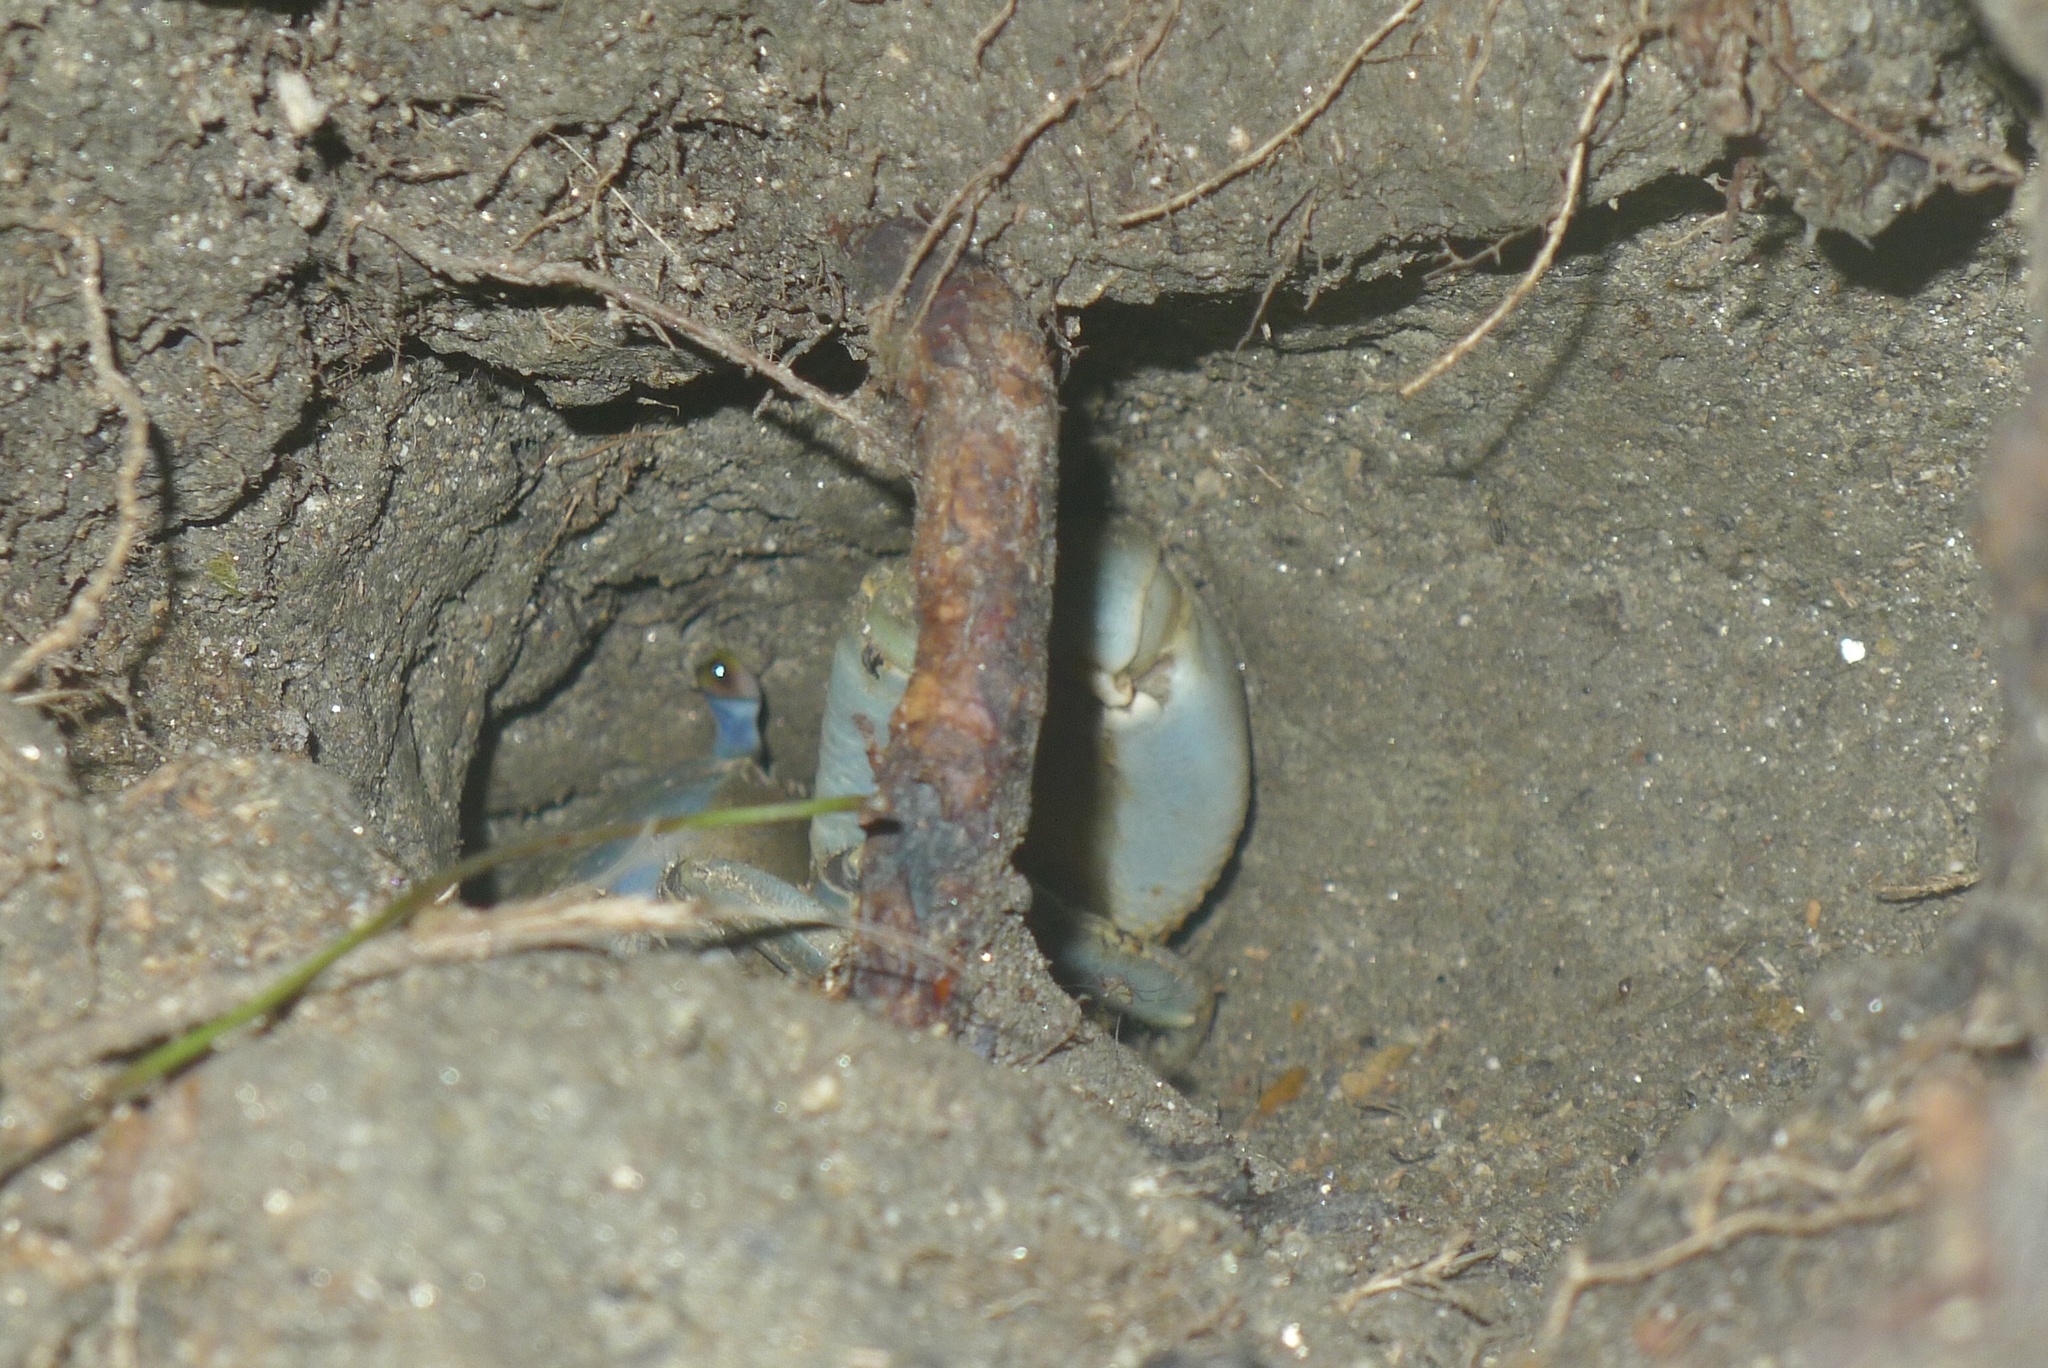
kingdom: Animalia
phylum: Arthropoda
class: Malacostraca
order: Decapoda
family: Gecarcinidae
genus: Cardisoma
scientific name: Cardisoma guanhumi
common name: Great land crab
